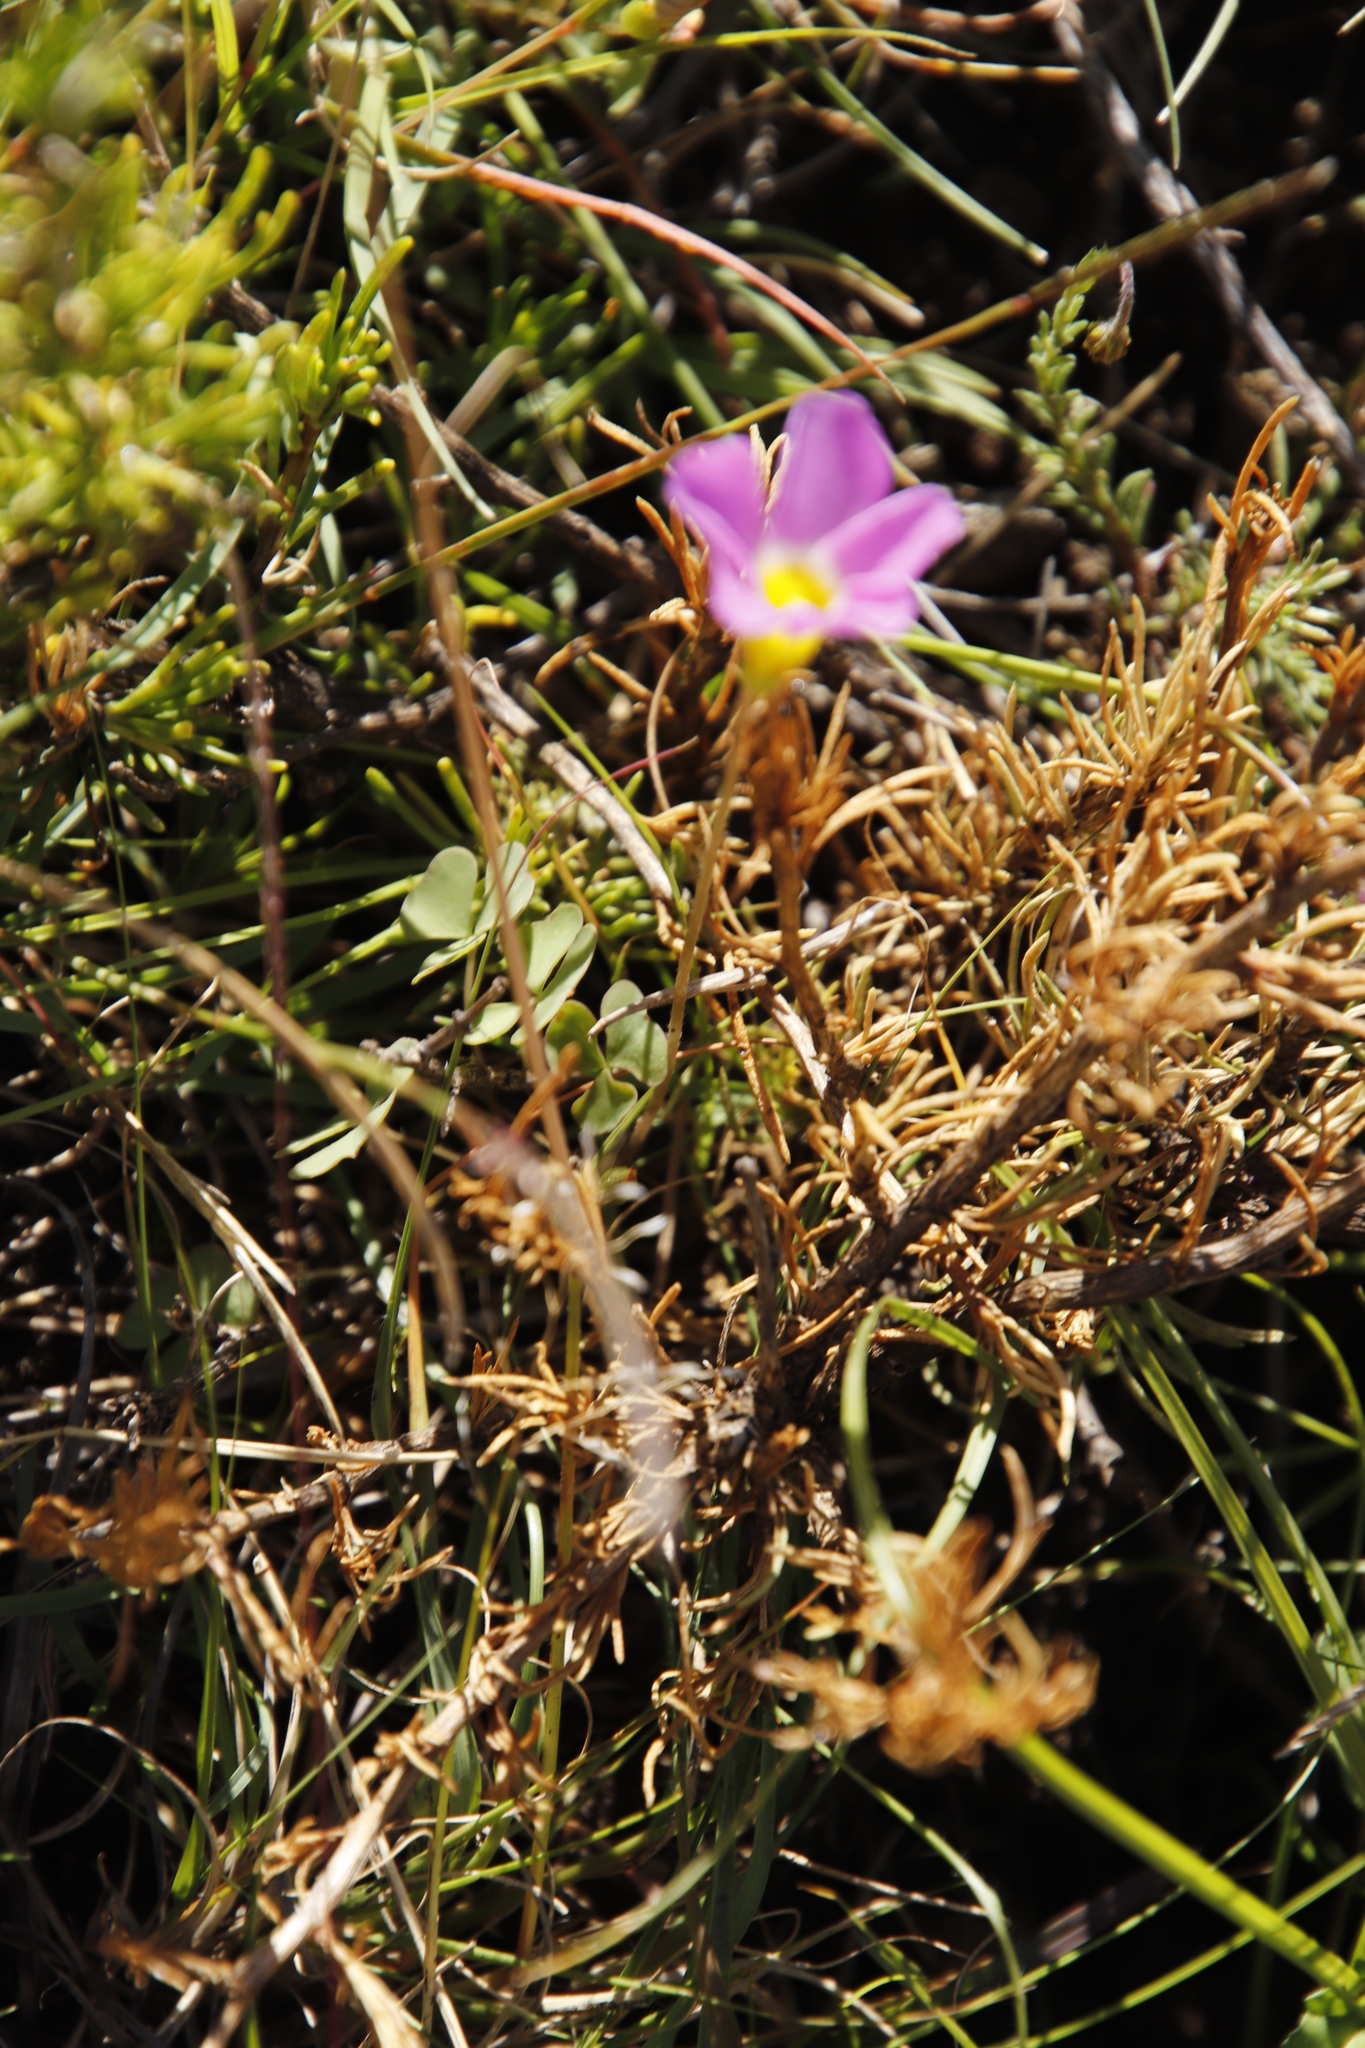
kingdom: Plantae
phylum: Tracheophyta
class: Magnoliopsida
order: Oxalidales
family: Oxalidaceae
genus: Oxalis
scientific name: Oxalis obliquifolia
